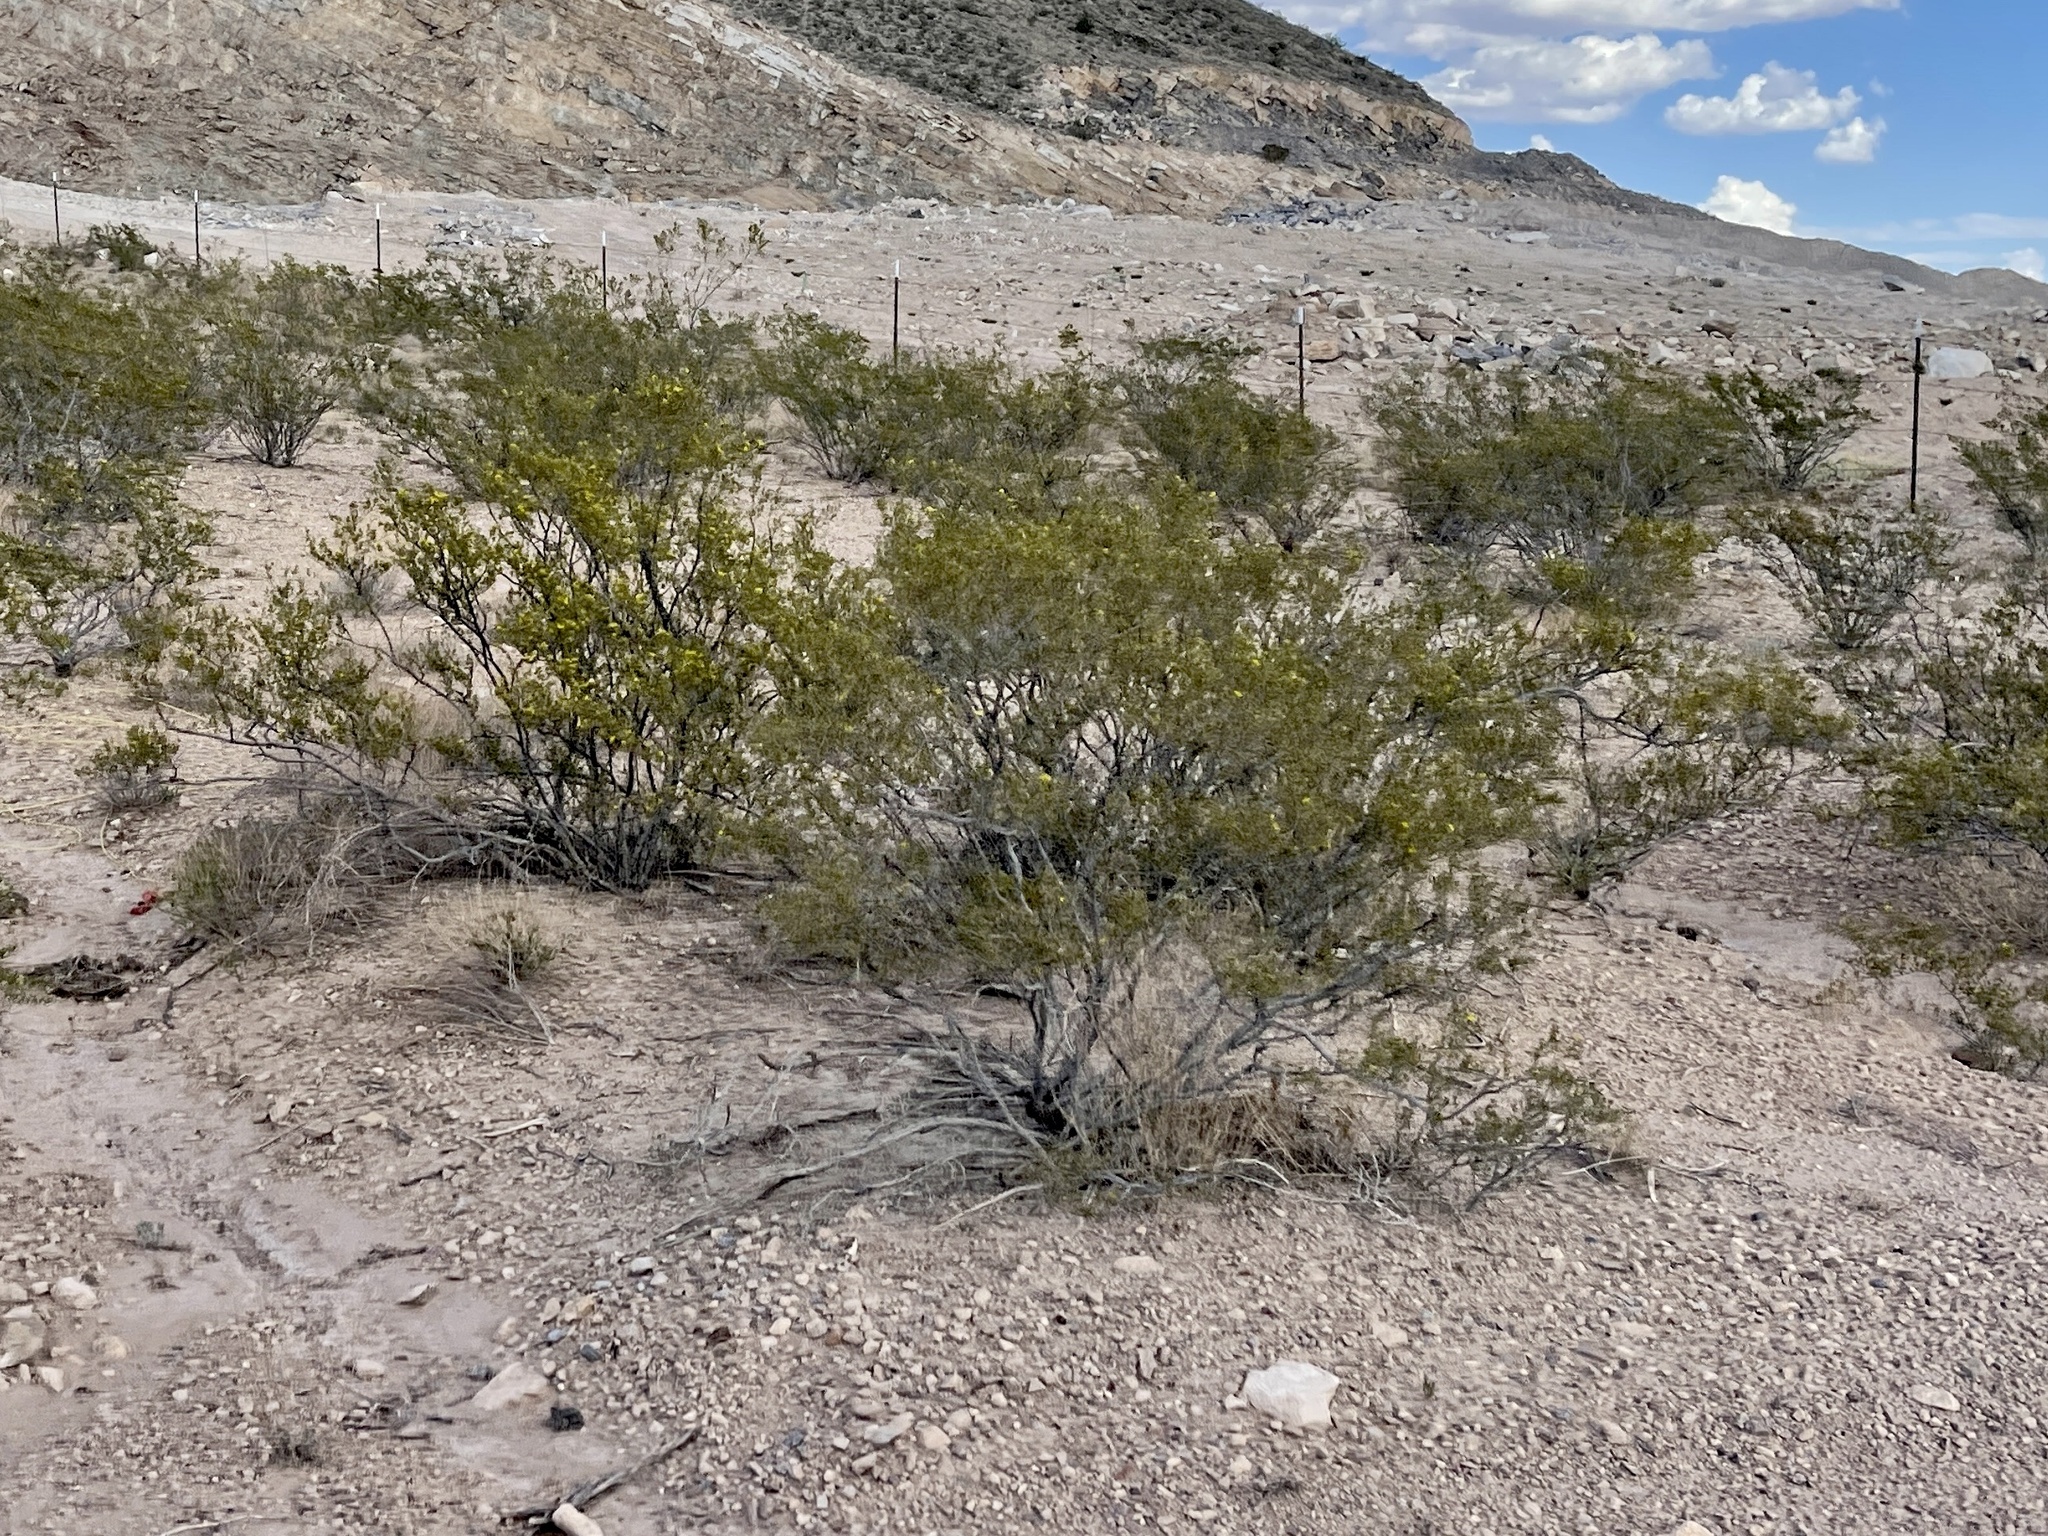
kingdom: Plantae
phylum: Tracheophyta
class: Magnoliopsida
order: Zygophyllales
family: Zygophyllaceae
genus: Larrea
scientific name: Larrea tridentata
